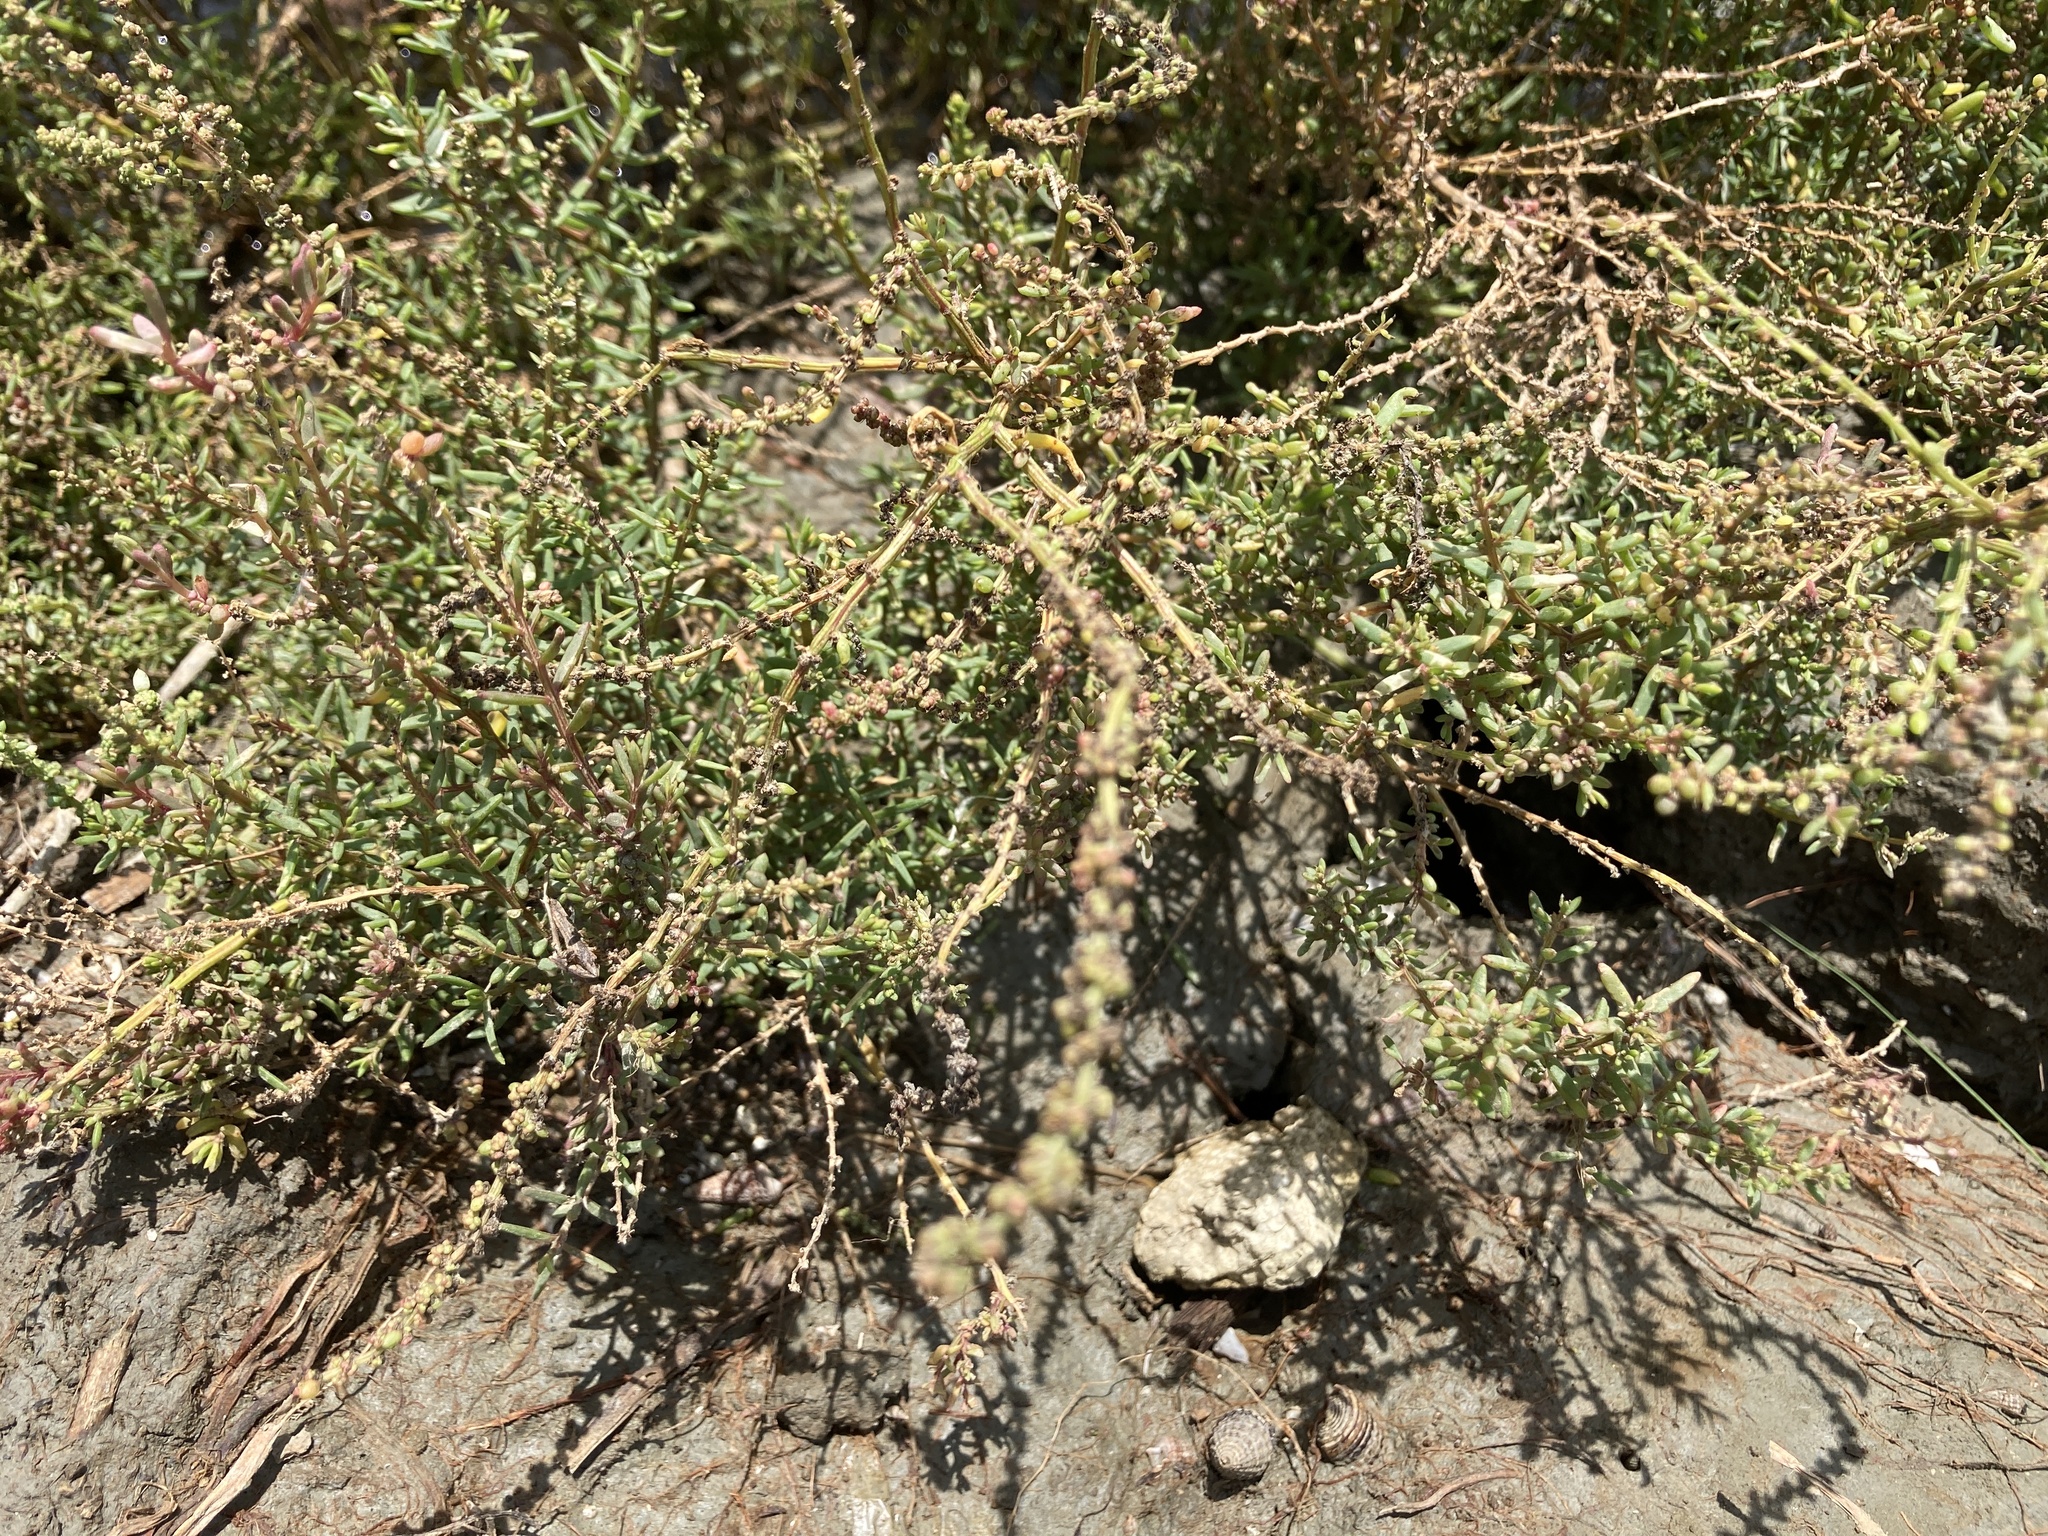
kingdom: Plantae
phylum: Tracheophyta
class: Magnoliopsida
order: Caryophyllales
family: Amaranthaceae
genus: Suaeda
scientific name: Suaeda maritima
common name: Annual sea-blite
